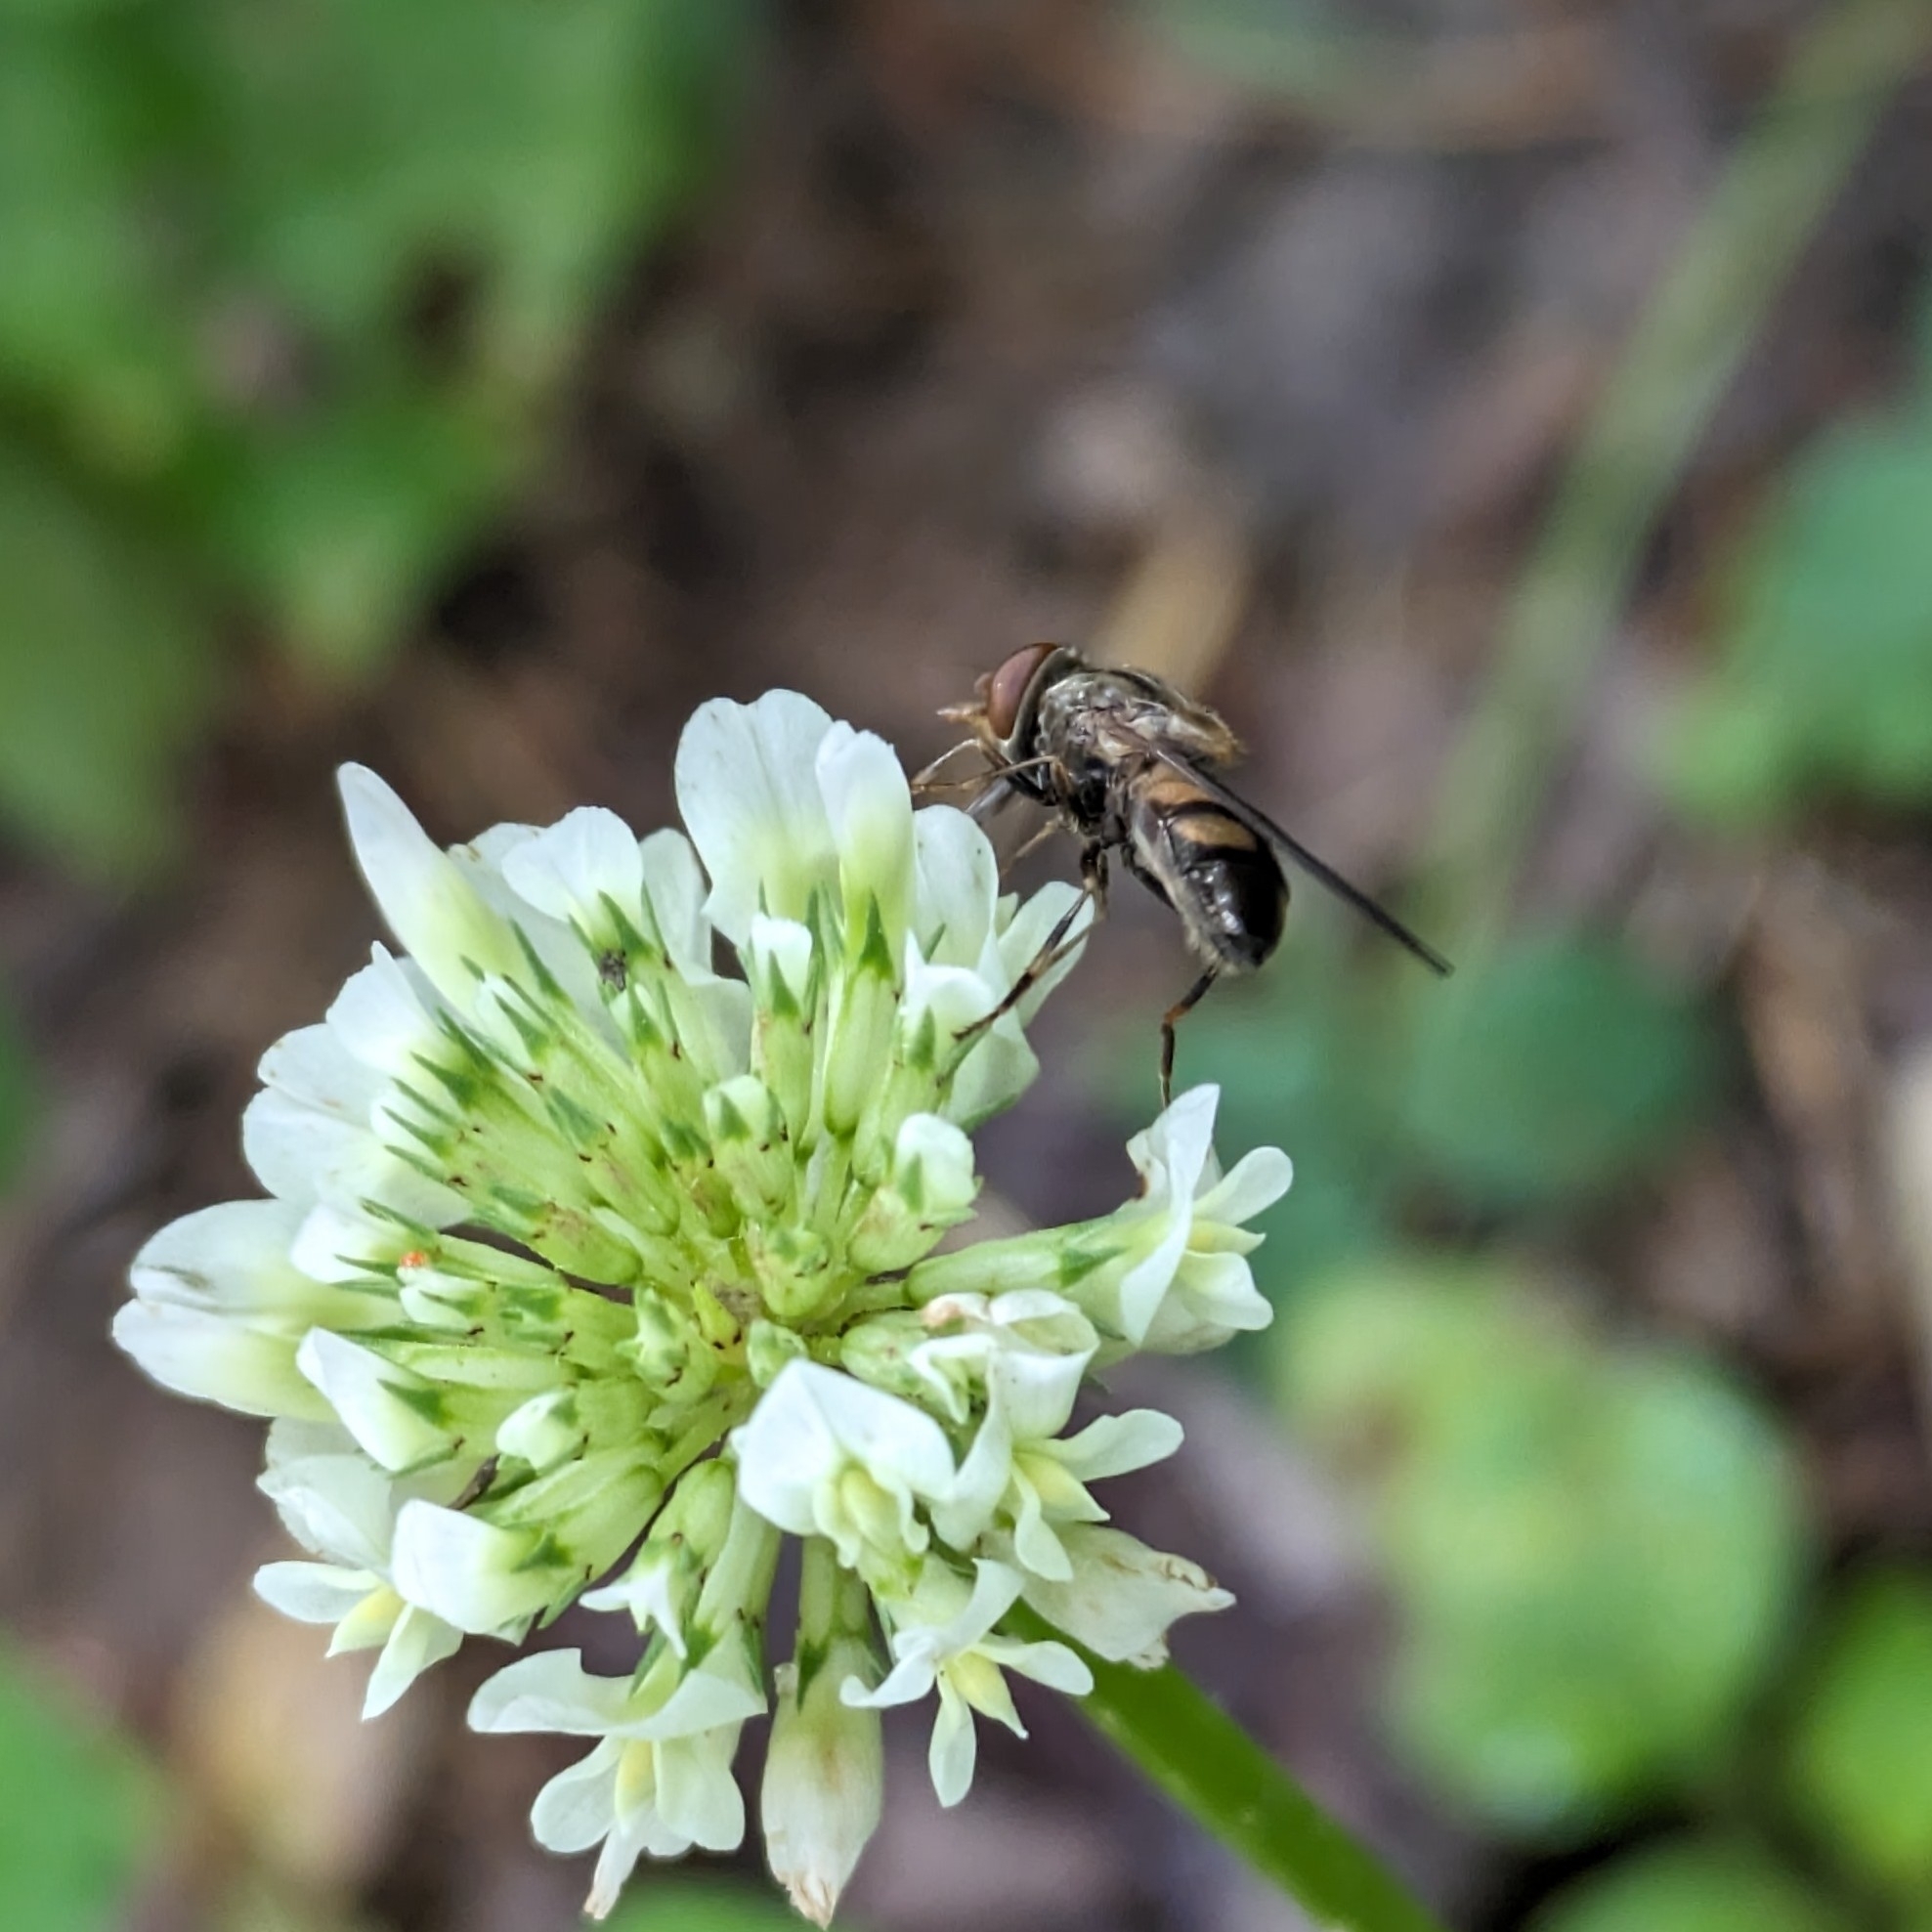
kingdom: Animalia
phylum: Arthropoda
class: Insecta
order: Diptera
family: Syrphidae
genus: Rhingia
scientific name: Rhingia nasica
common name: American snout fly
